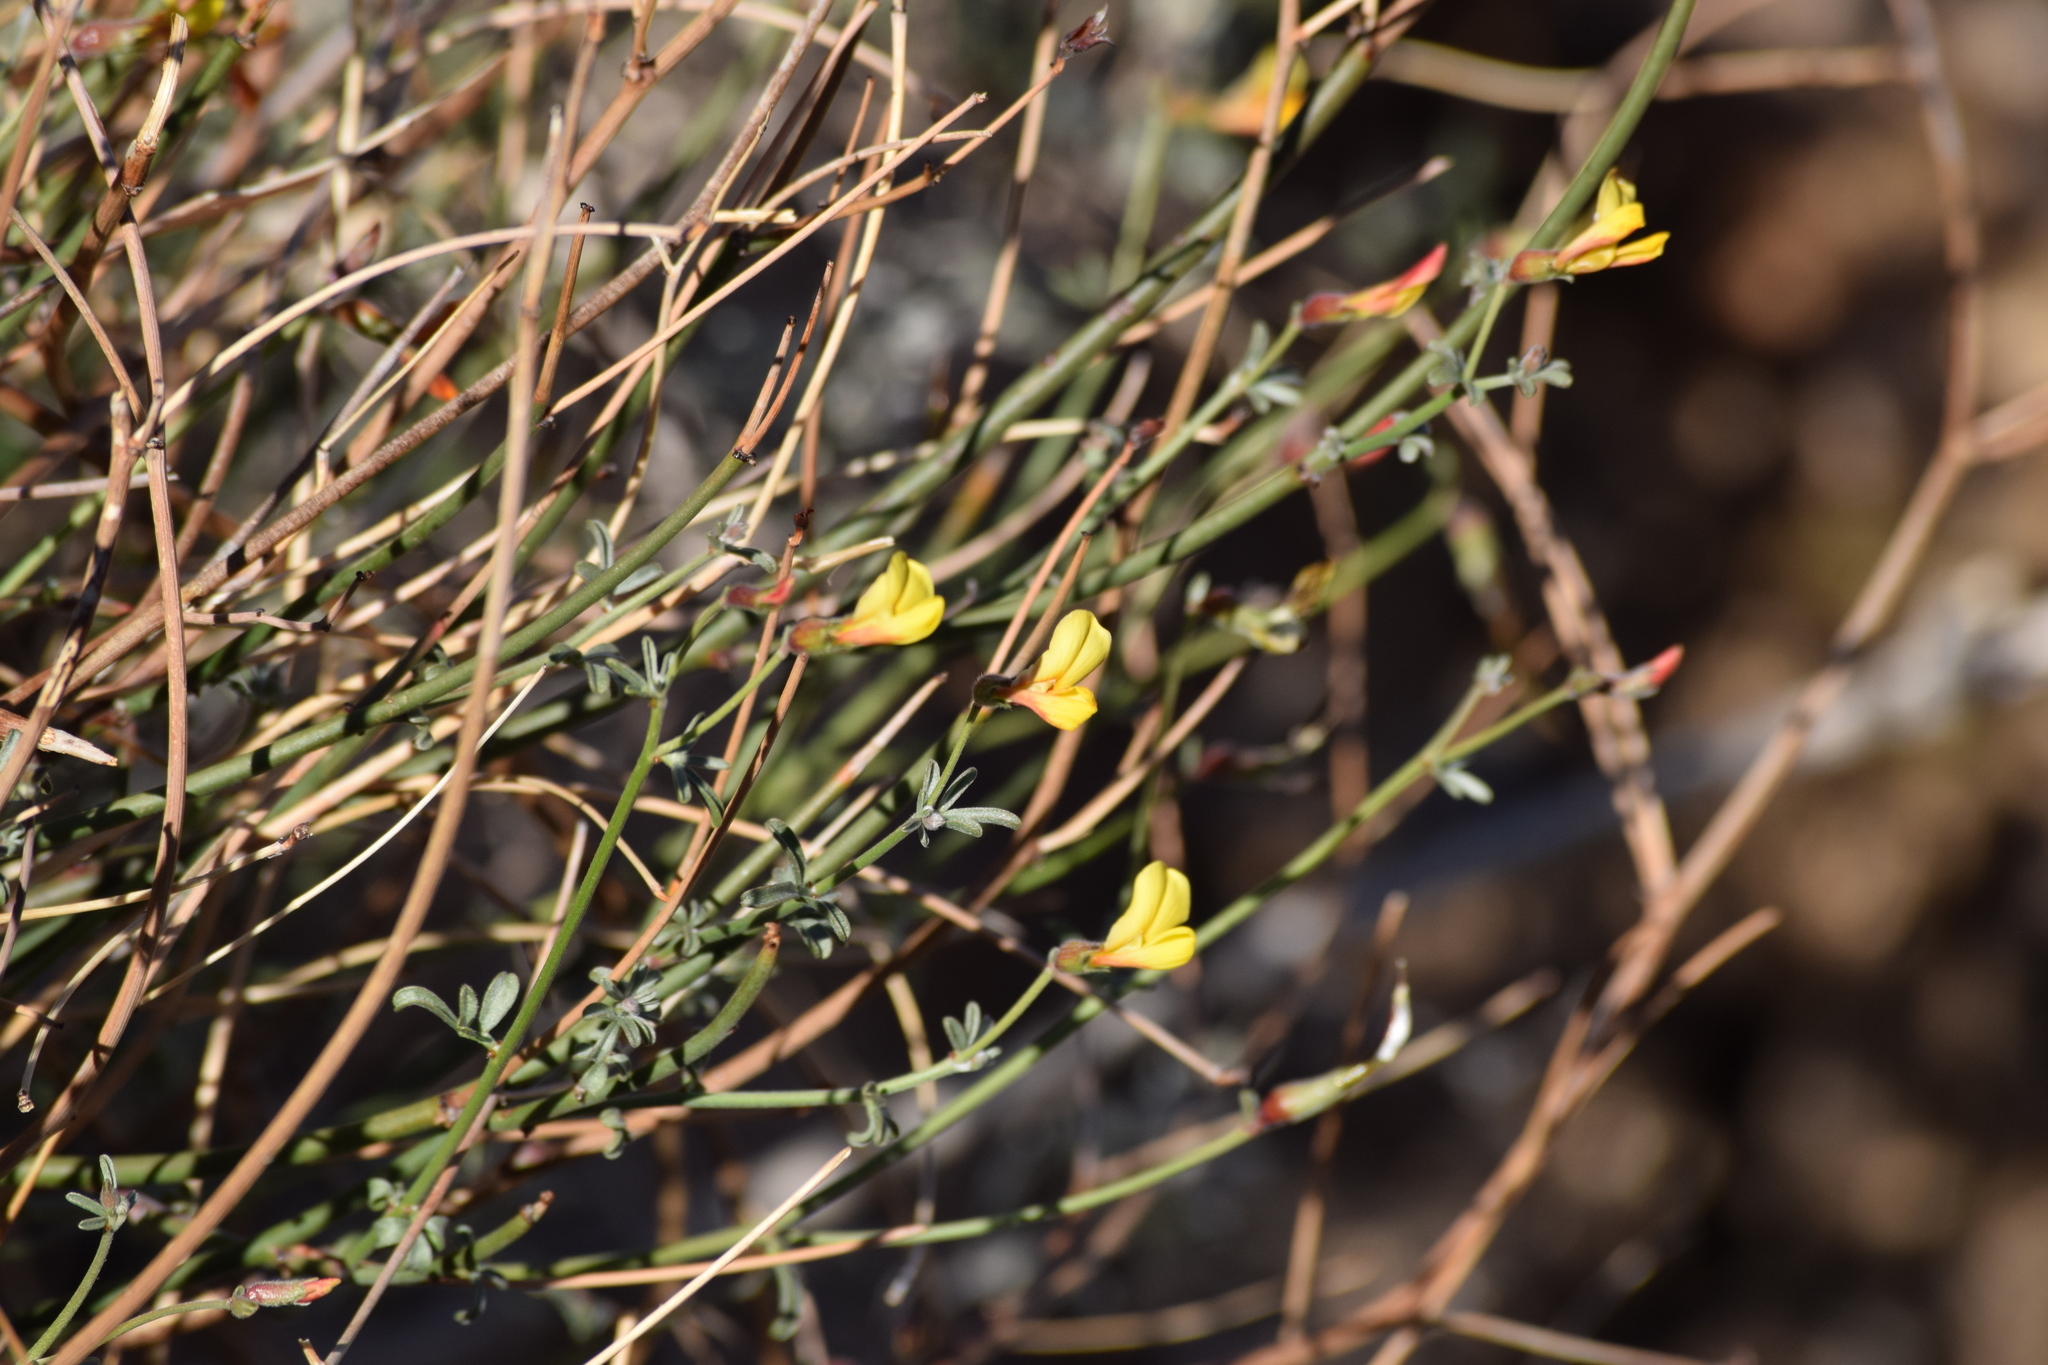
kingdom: Plantae
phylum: Tracheophyta
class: Magnoliopsida
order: Fabales
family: Fabaceae
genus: Acmispon
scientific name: Acmispon rigidus
